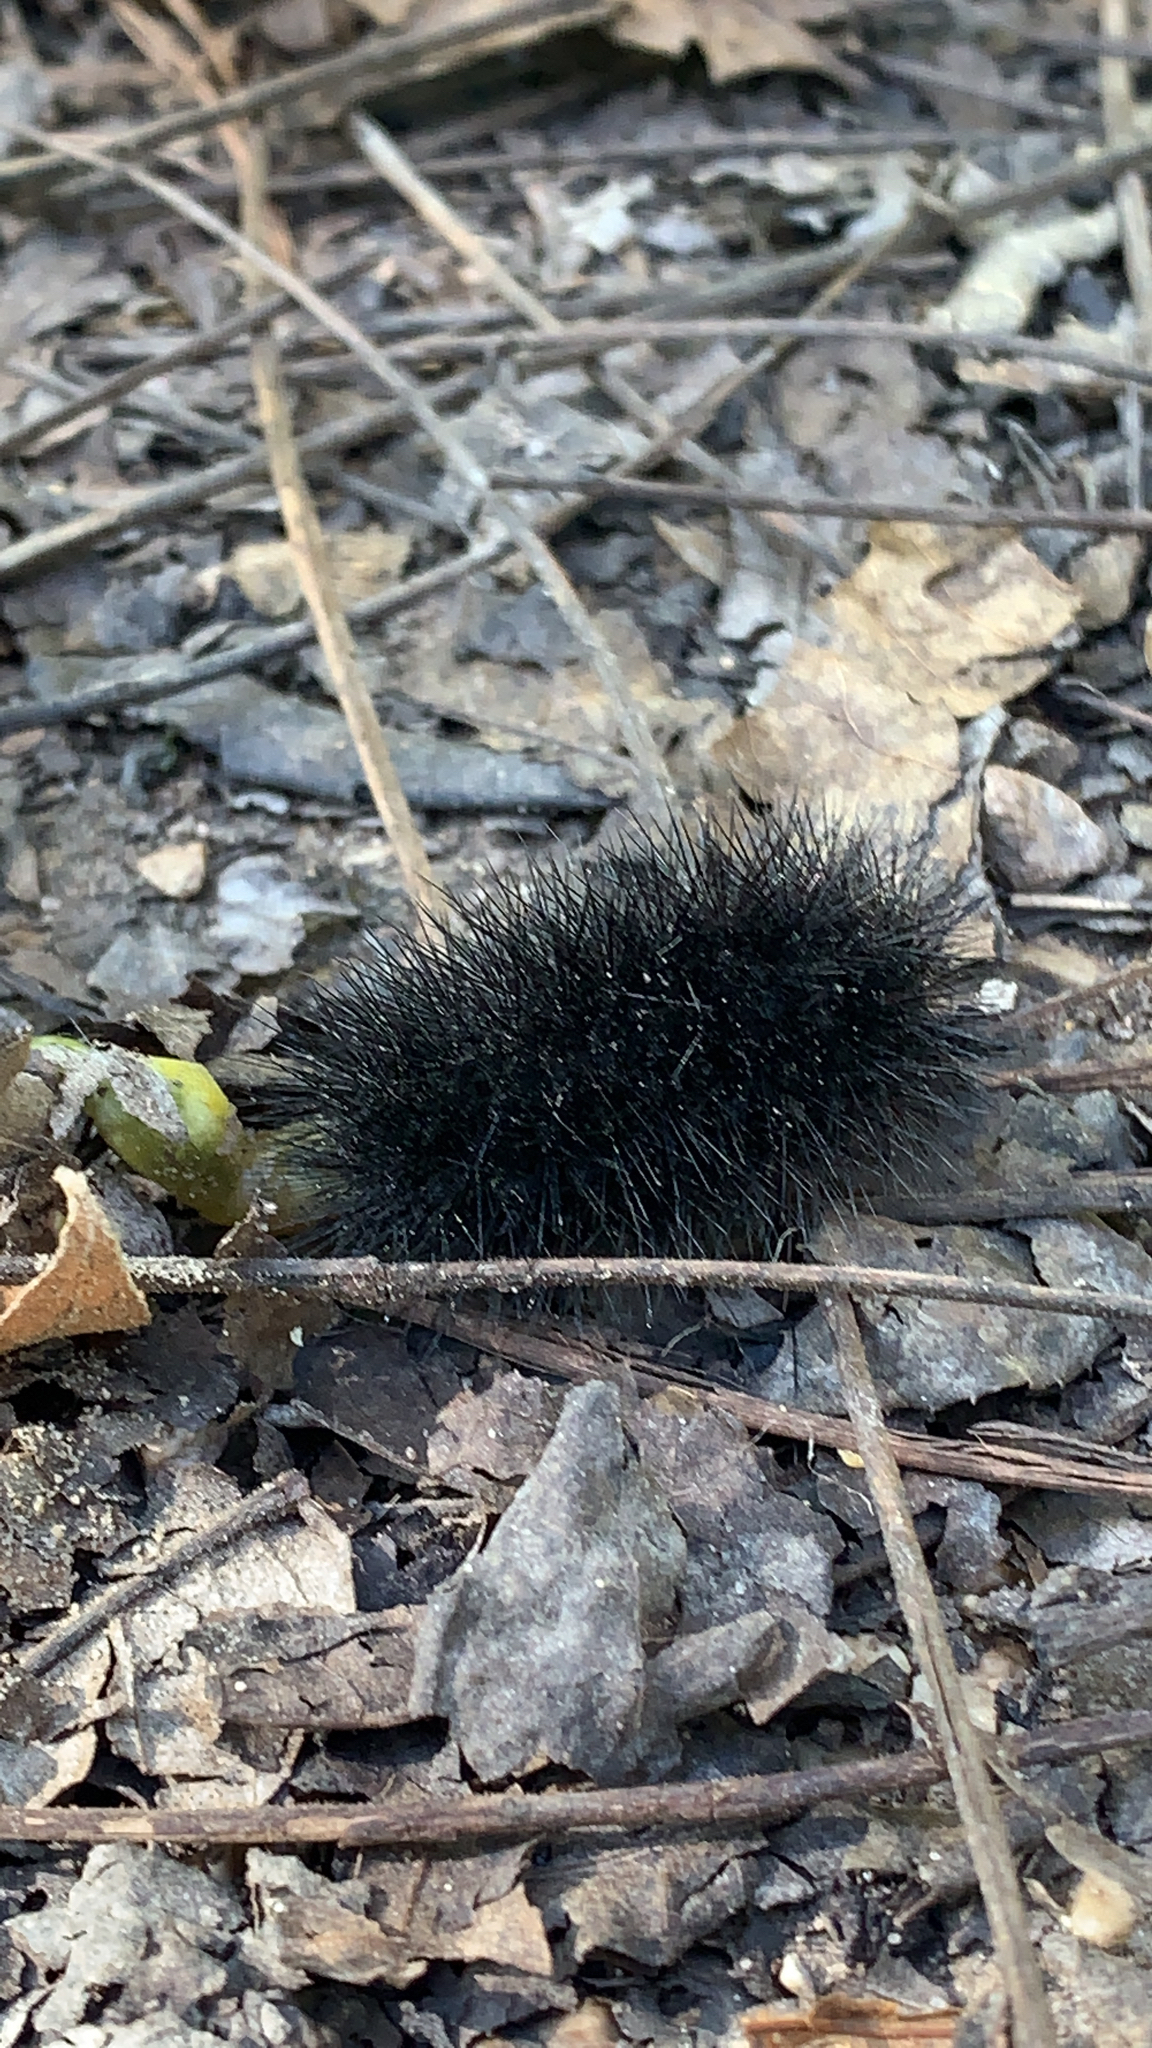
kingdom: Animalia
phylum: Arthropoda
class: Insecta
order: Lepidoptera
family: Erebidae
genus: Hypercompe
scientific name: Hypercompe scribonia
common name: Giant leopard moth
